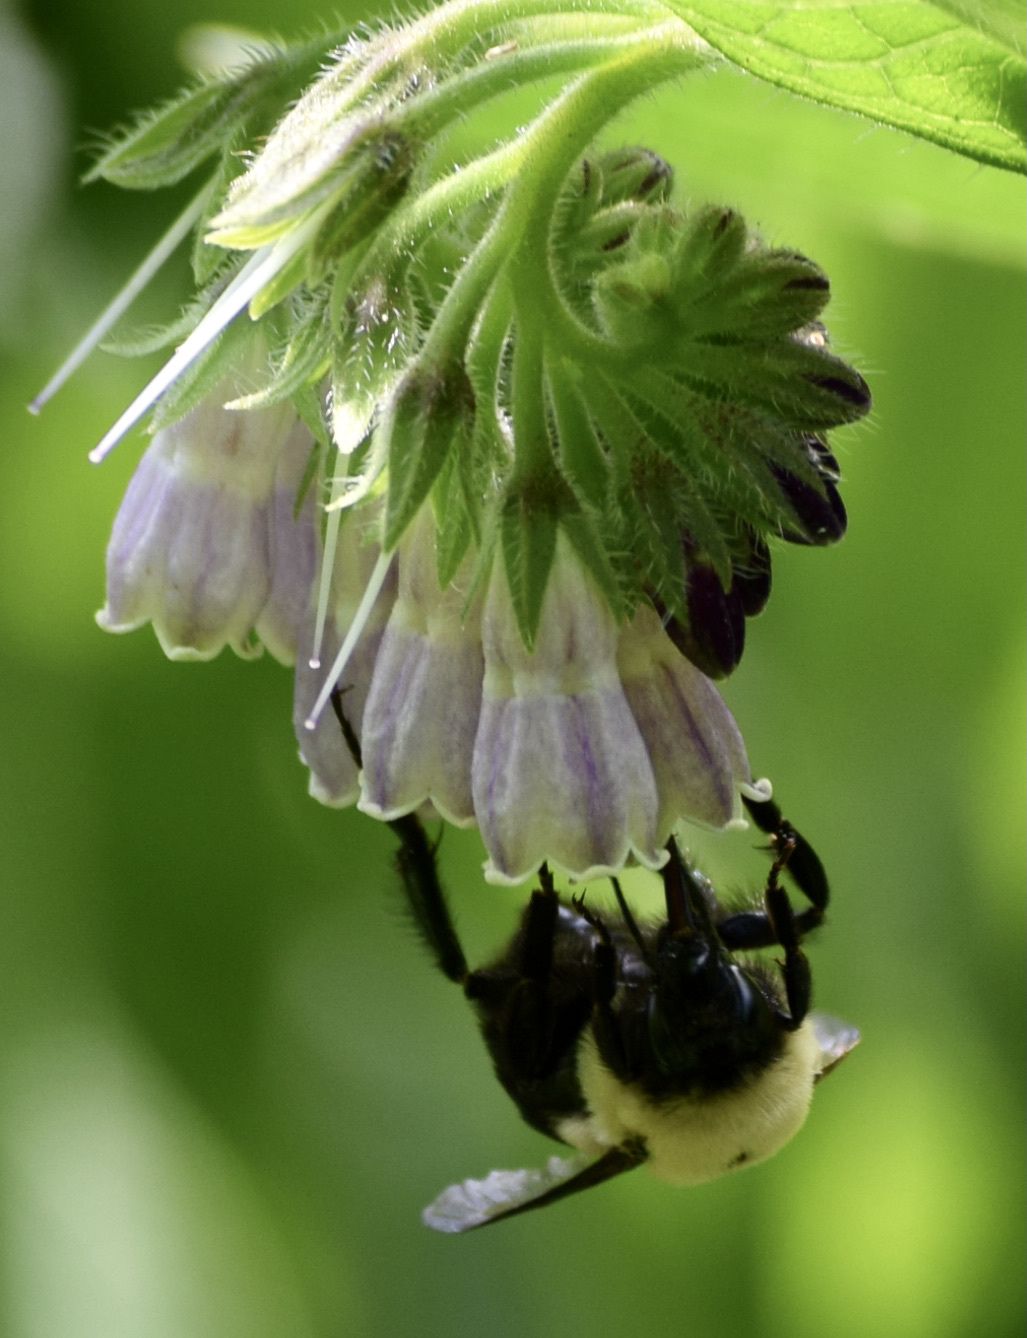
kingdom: Animalia
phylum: Arthropoda
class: Insecta
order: Hymenoptera
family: Apidae
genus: Bombus
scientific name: Bombus griseocollis
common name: Brown-belted bumble bee
